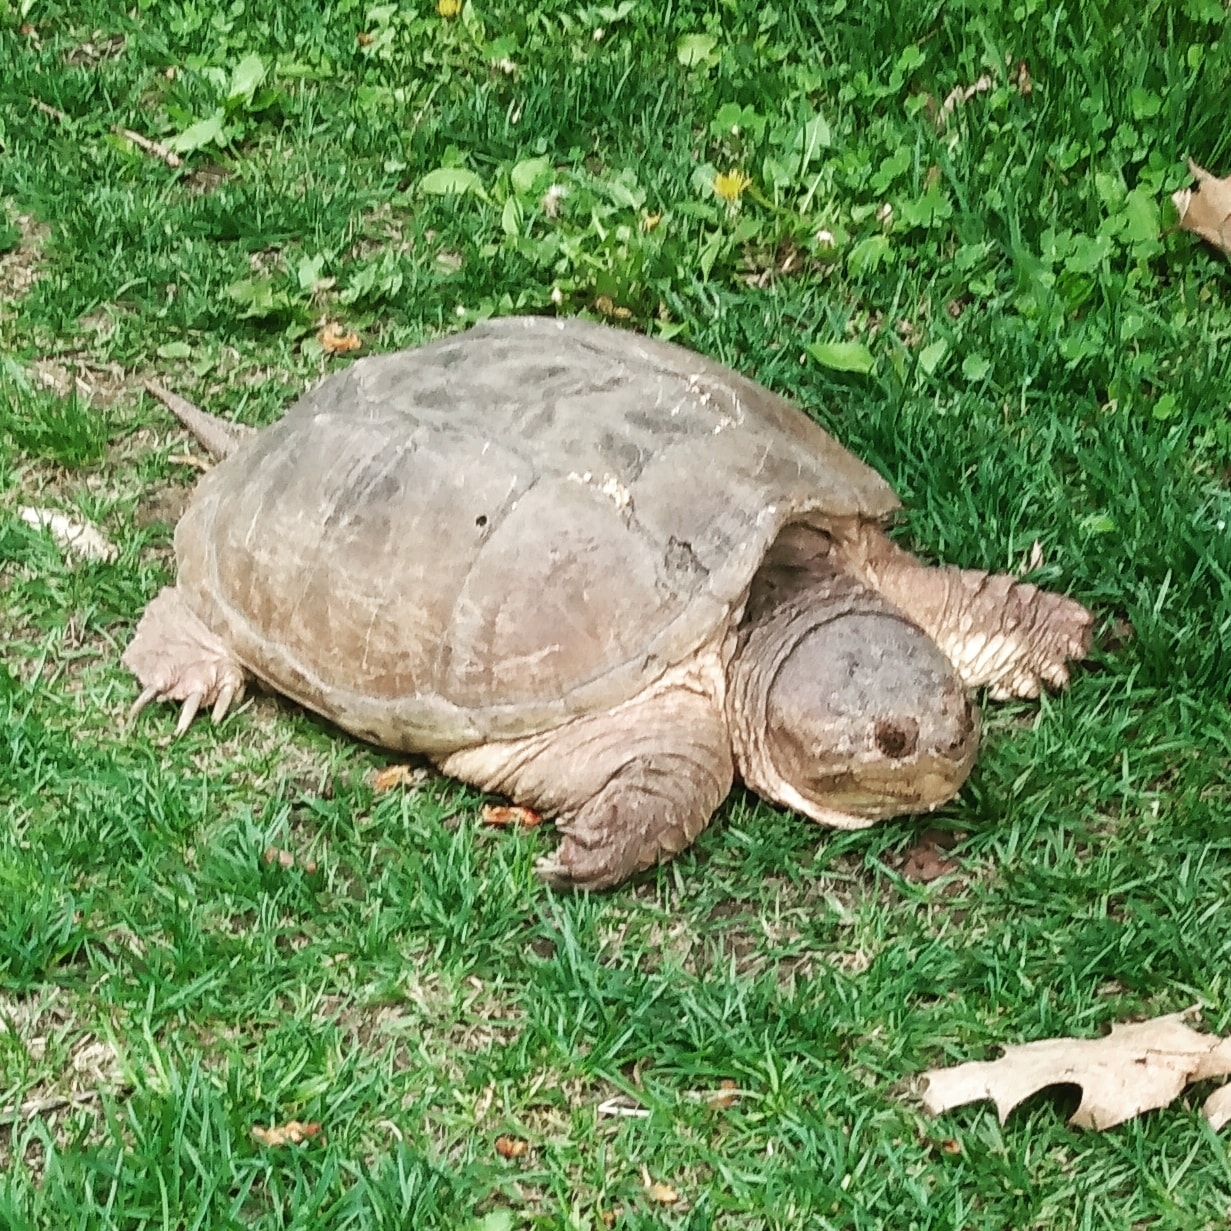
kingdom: Animalia
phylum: Chordata
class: Testudines
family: Chelydridae
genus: Chelydra
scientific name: Chelydra serpentina
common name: Common snapping turtle
